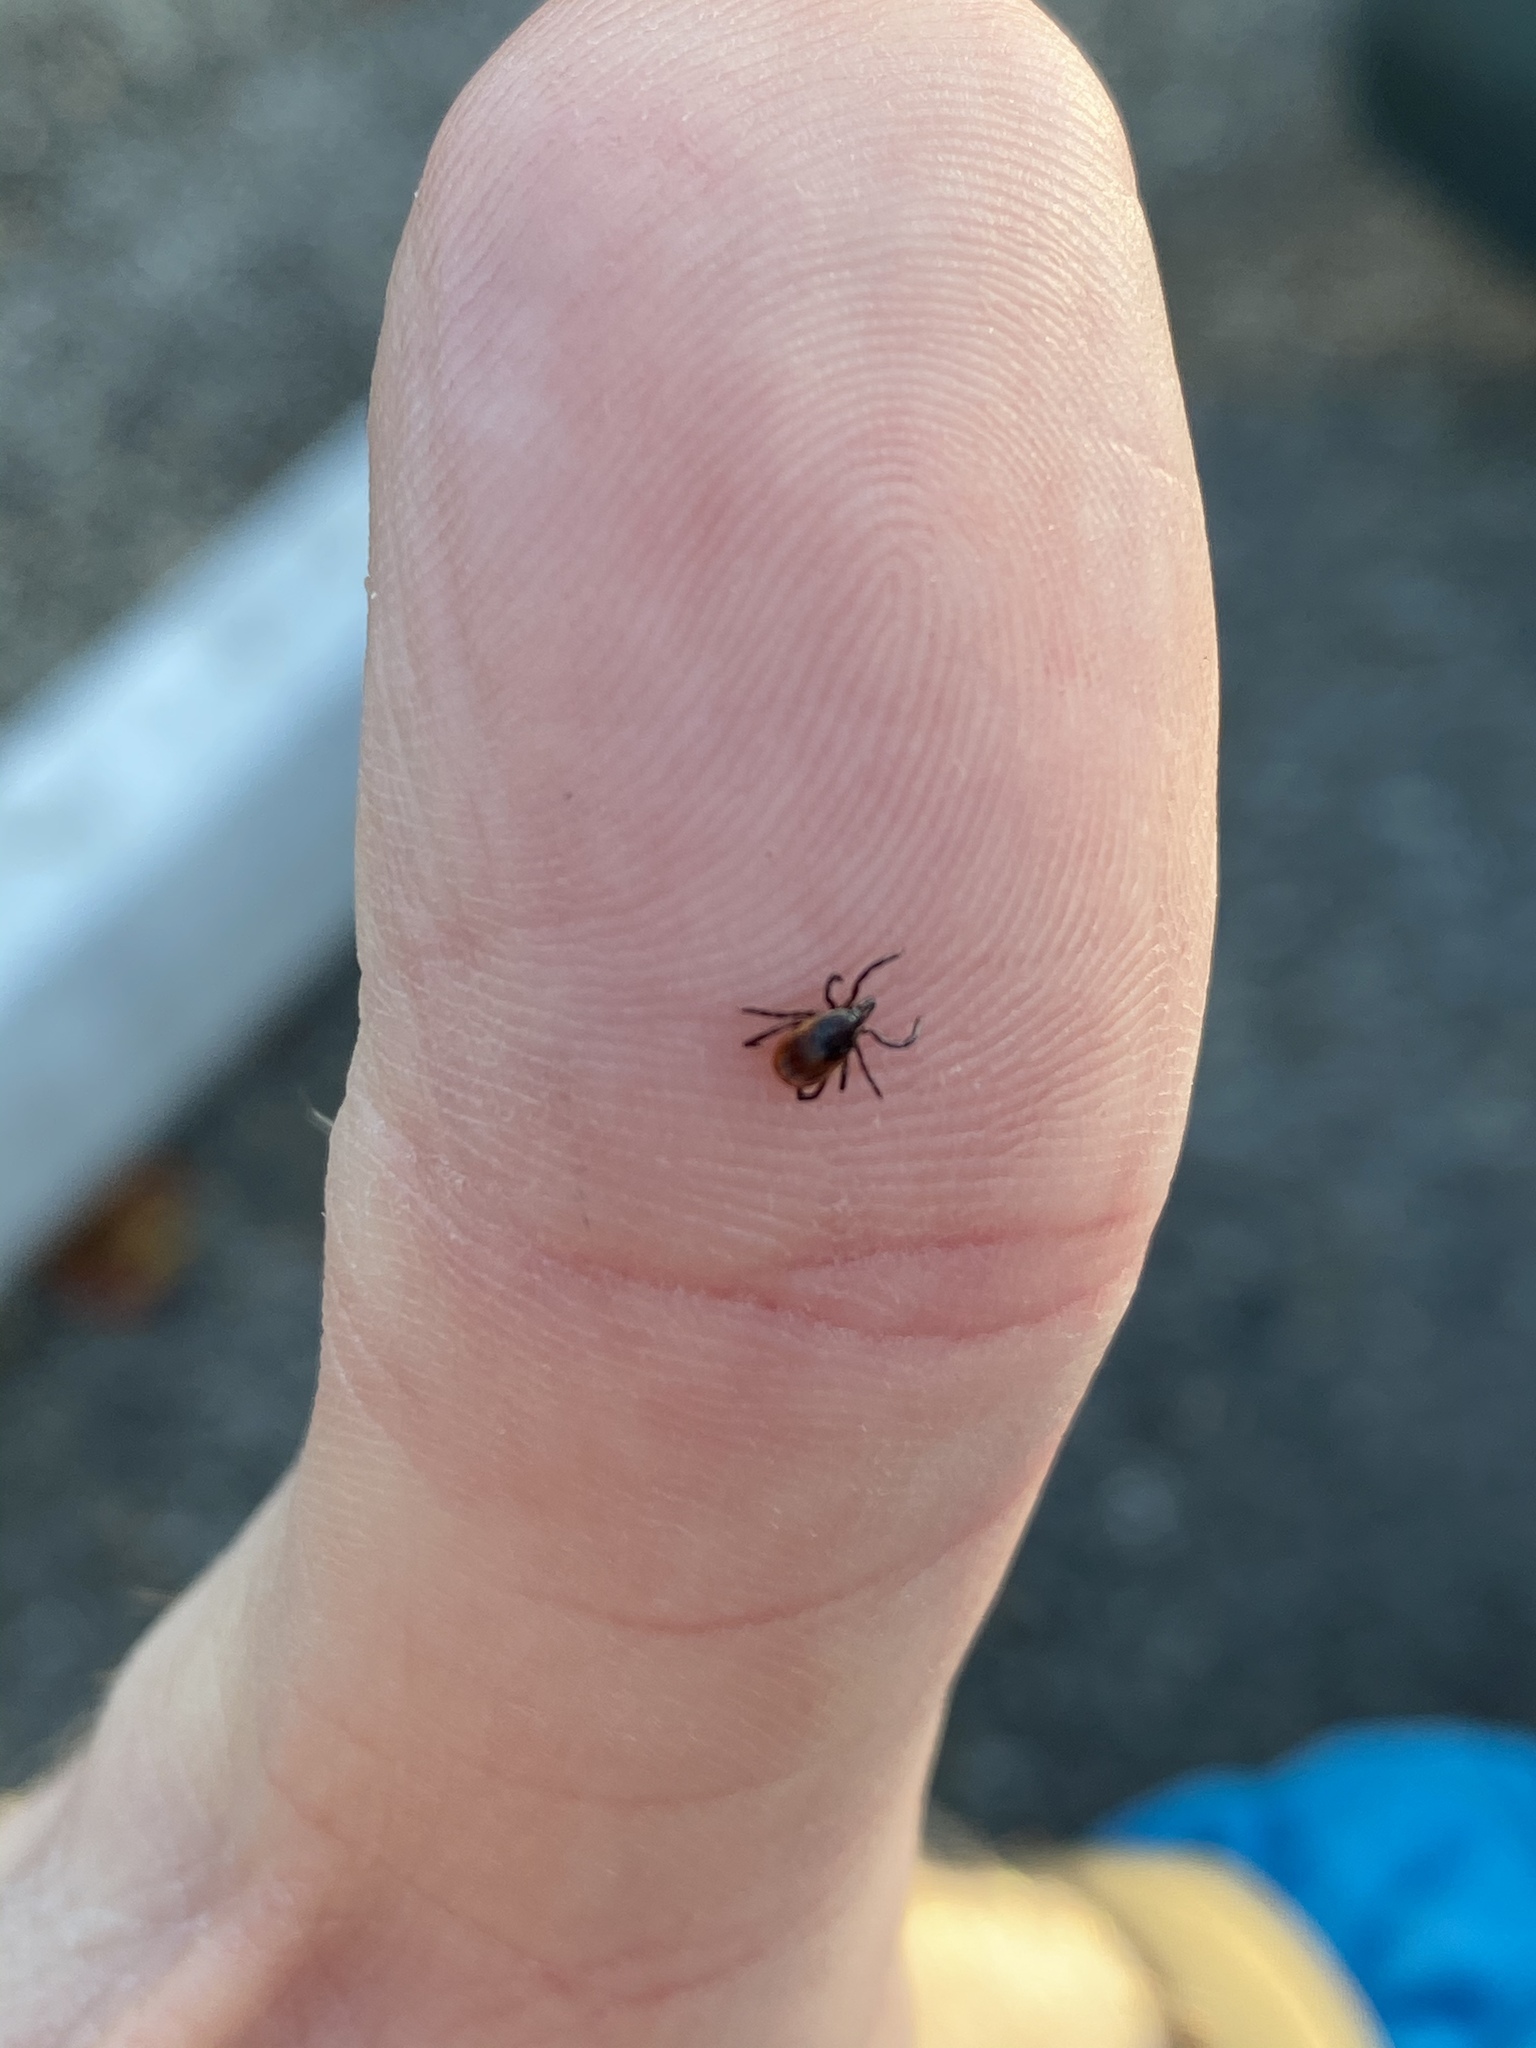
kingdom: Animalia
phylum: Arthropoda
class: Arachnida
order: Ixodida
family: Ixodidae
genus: Ixodes
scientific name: Ixodes scapularis
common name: Black legged tick
